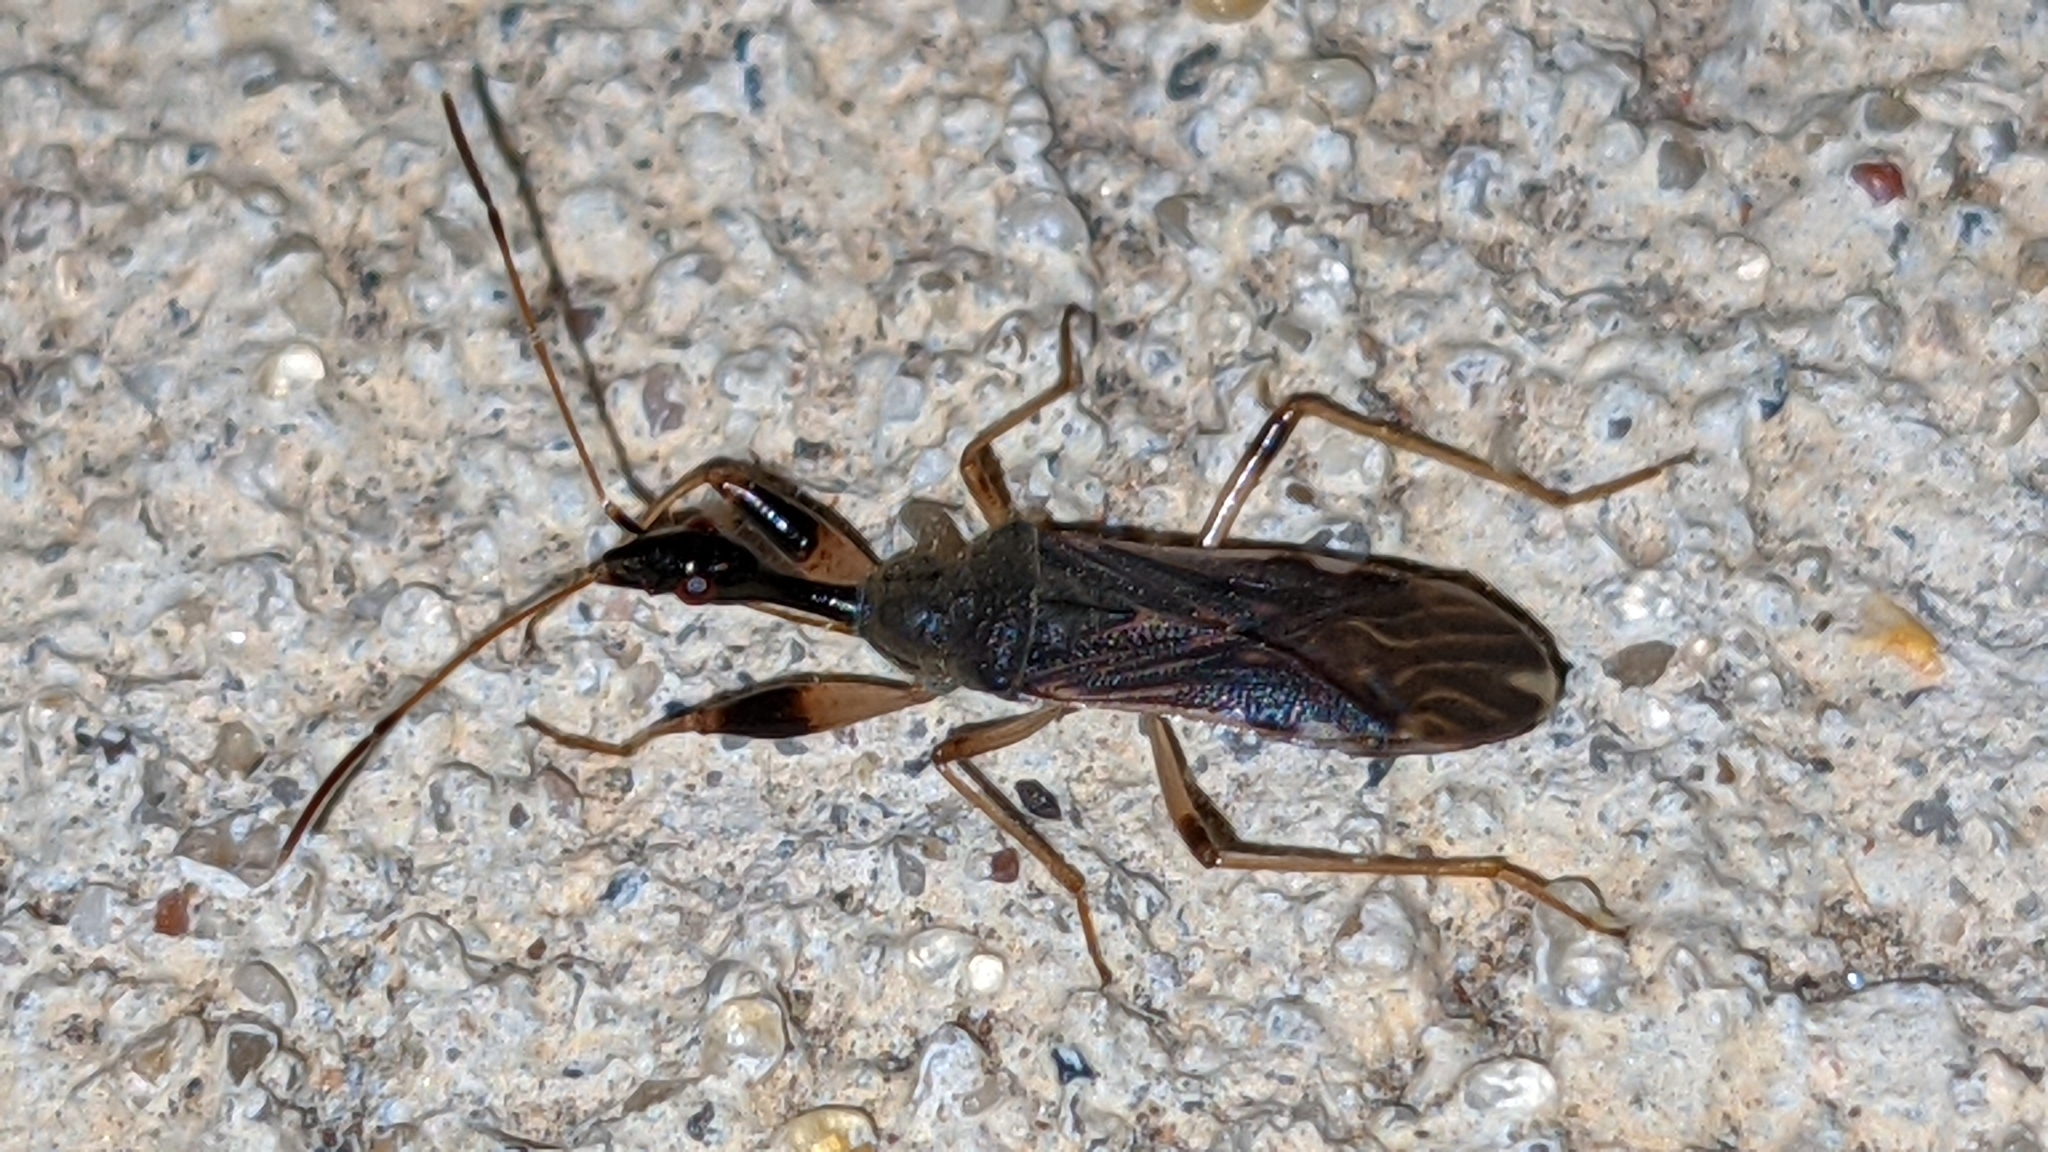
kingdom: Animalia
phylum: Arthropoda
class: Insecta
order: Hemiptera
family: Rhyparochromidae
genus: Myodocha
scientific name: Myodocha serripes
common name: Long-necked seed bug
